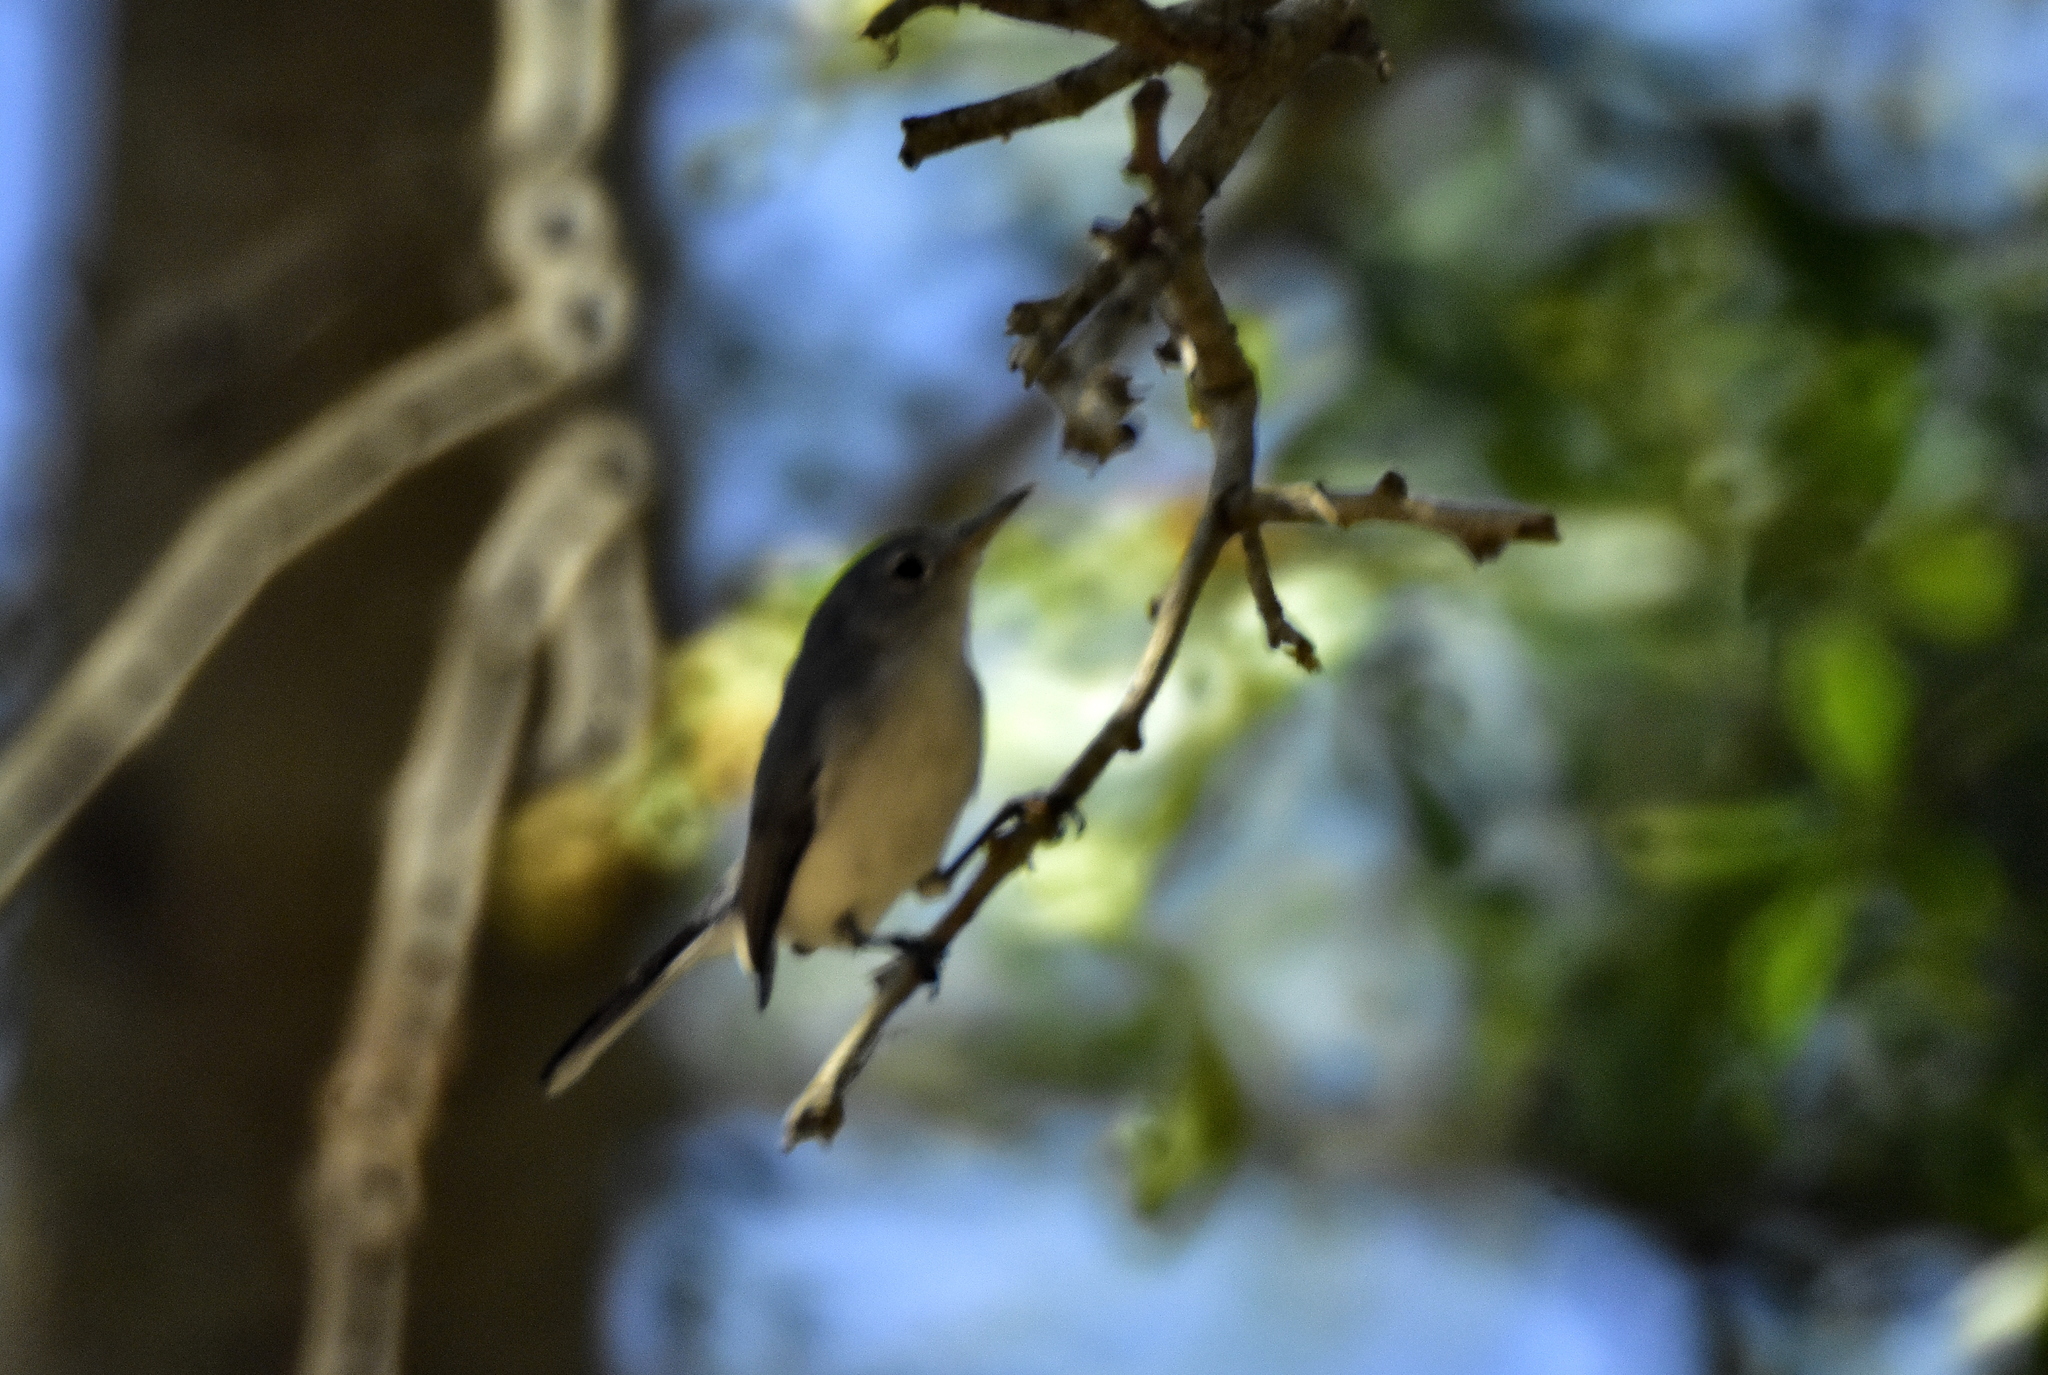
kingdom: Animalia
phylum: Chordata
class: Aves
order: Passeriformes
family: Polioptilidae
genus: Polioptila
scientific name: Polioptila caerulea
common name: Blue-gray gnatcatcher
